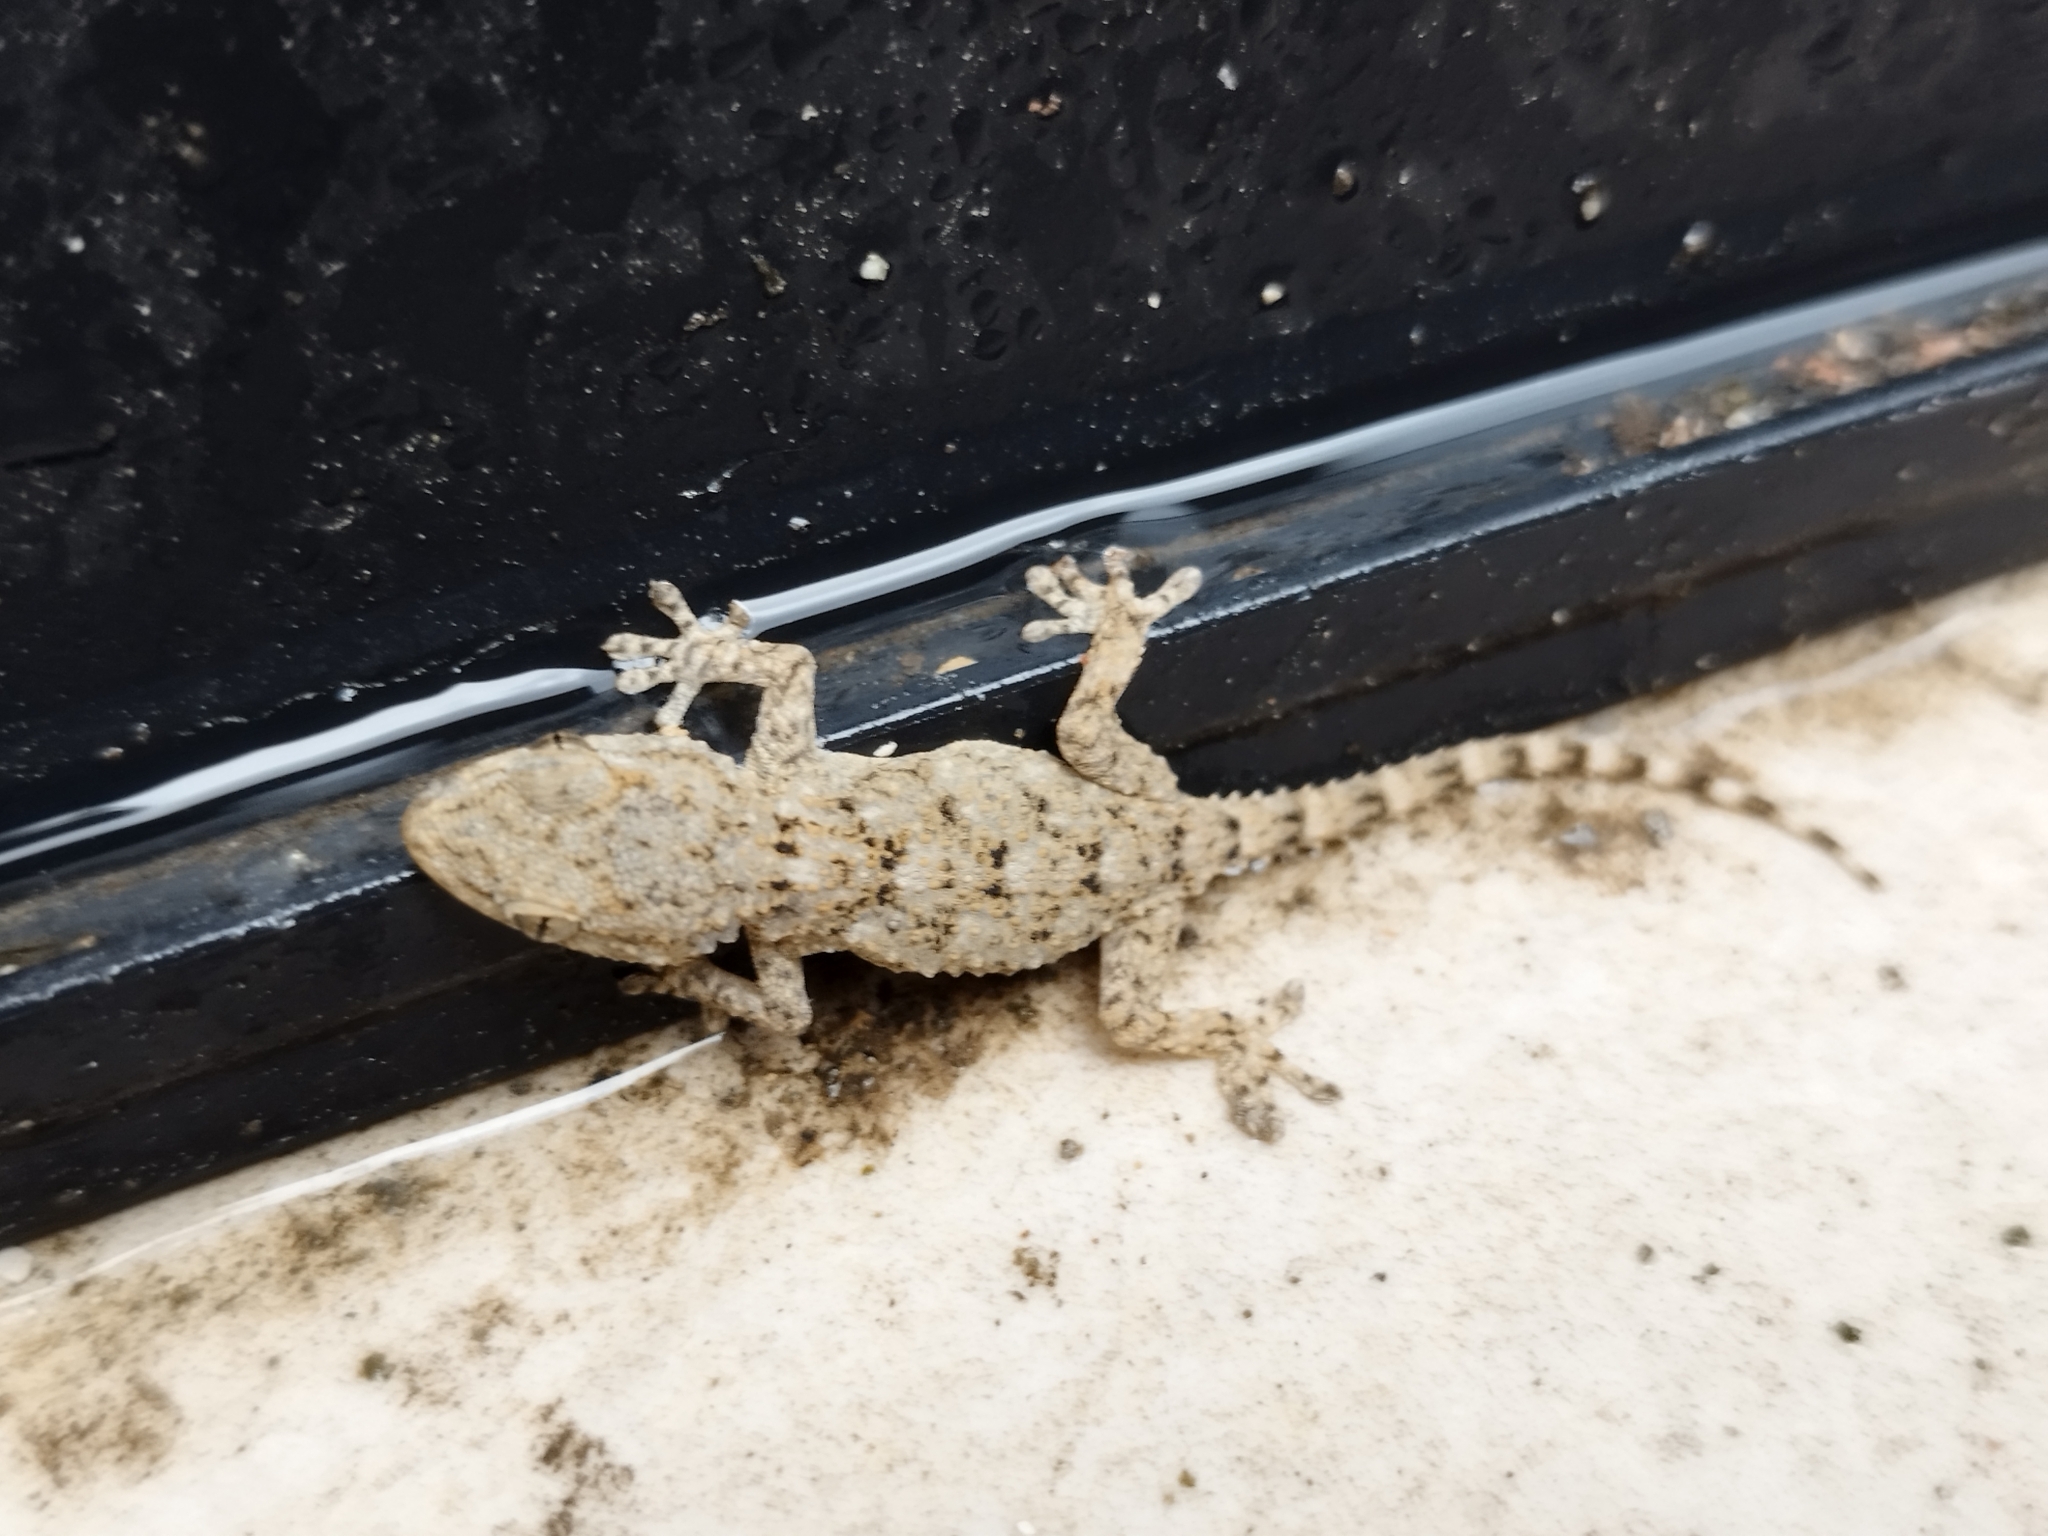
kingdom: Animalia
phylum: Chordata
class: Squamata
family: Phyllodactylidae
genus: Tarentola
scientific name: Tarentola mauritanica
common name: Moorish gecko
